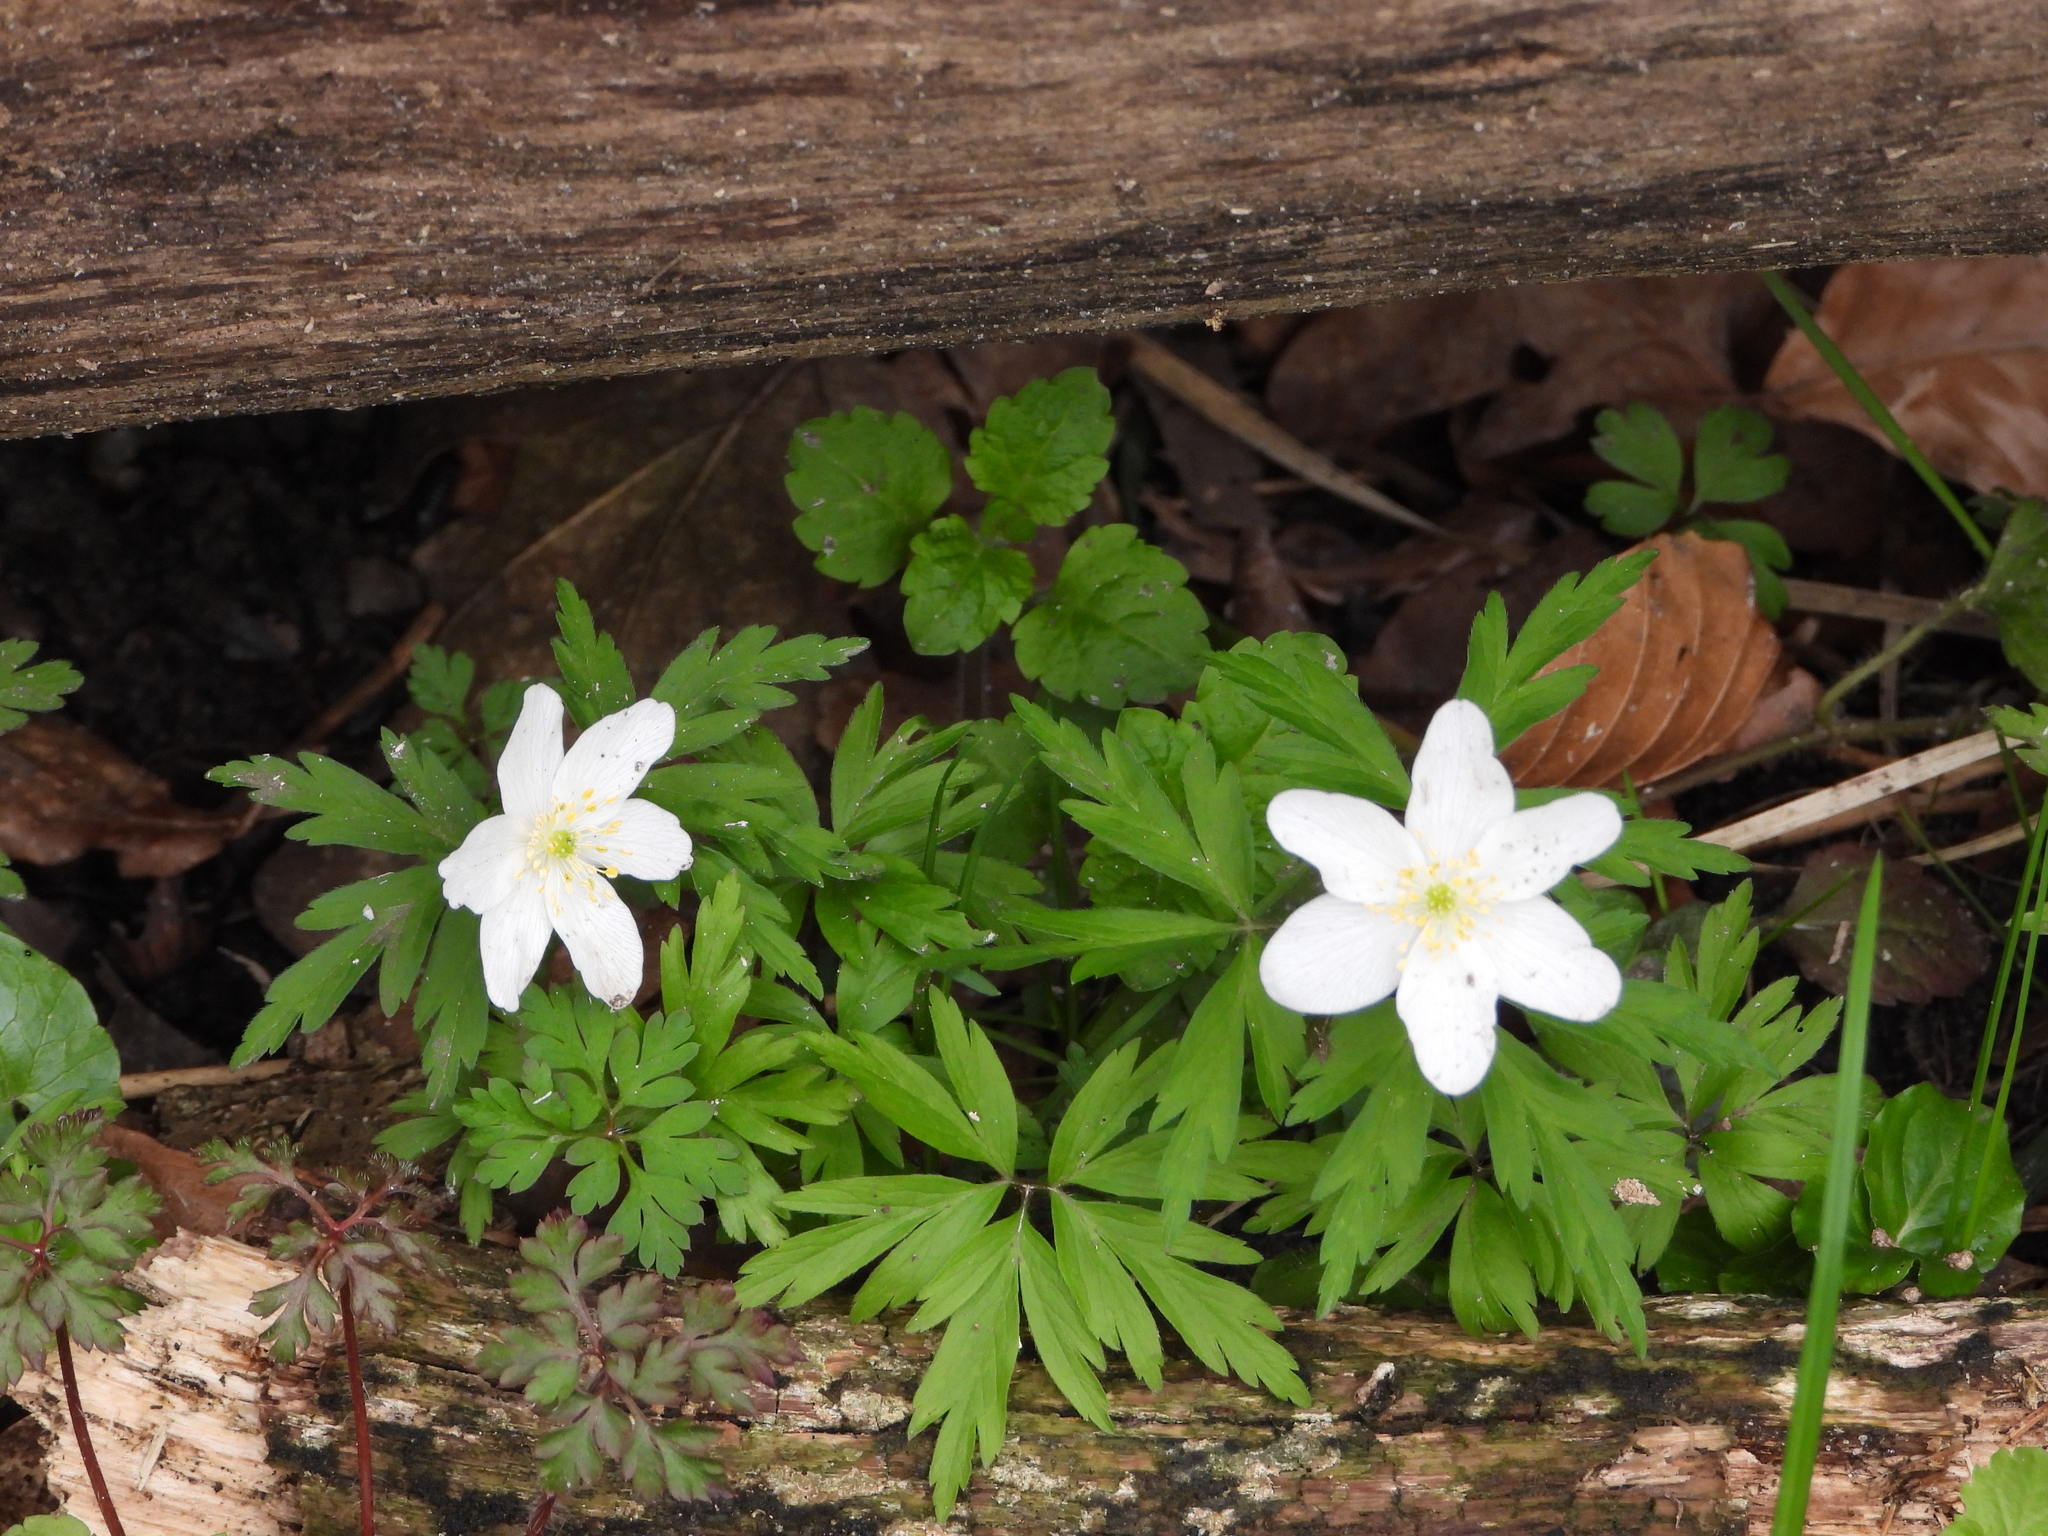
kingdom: Plantae
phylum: Tracheophyta
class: Magnoliopsida
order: Ranunculales
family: Ranunculaceae
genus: Anemone
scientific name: Anemone nemorosa
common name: Wood anemone
